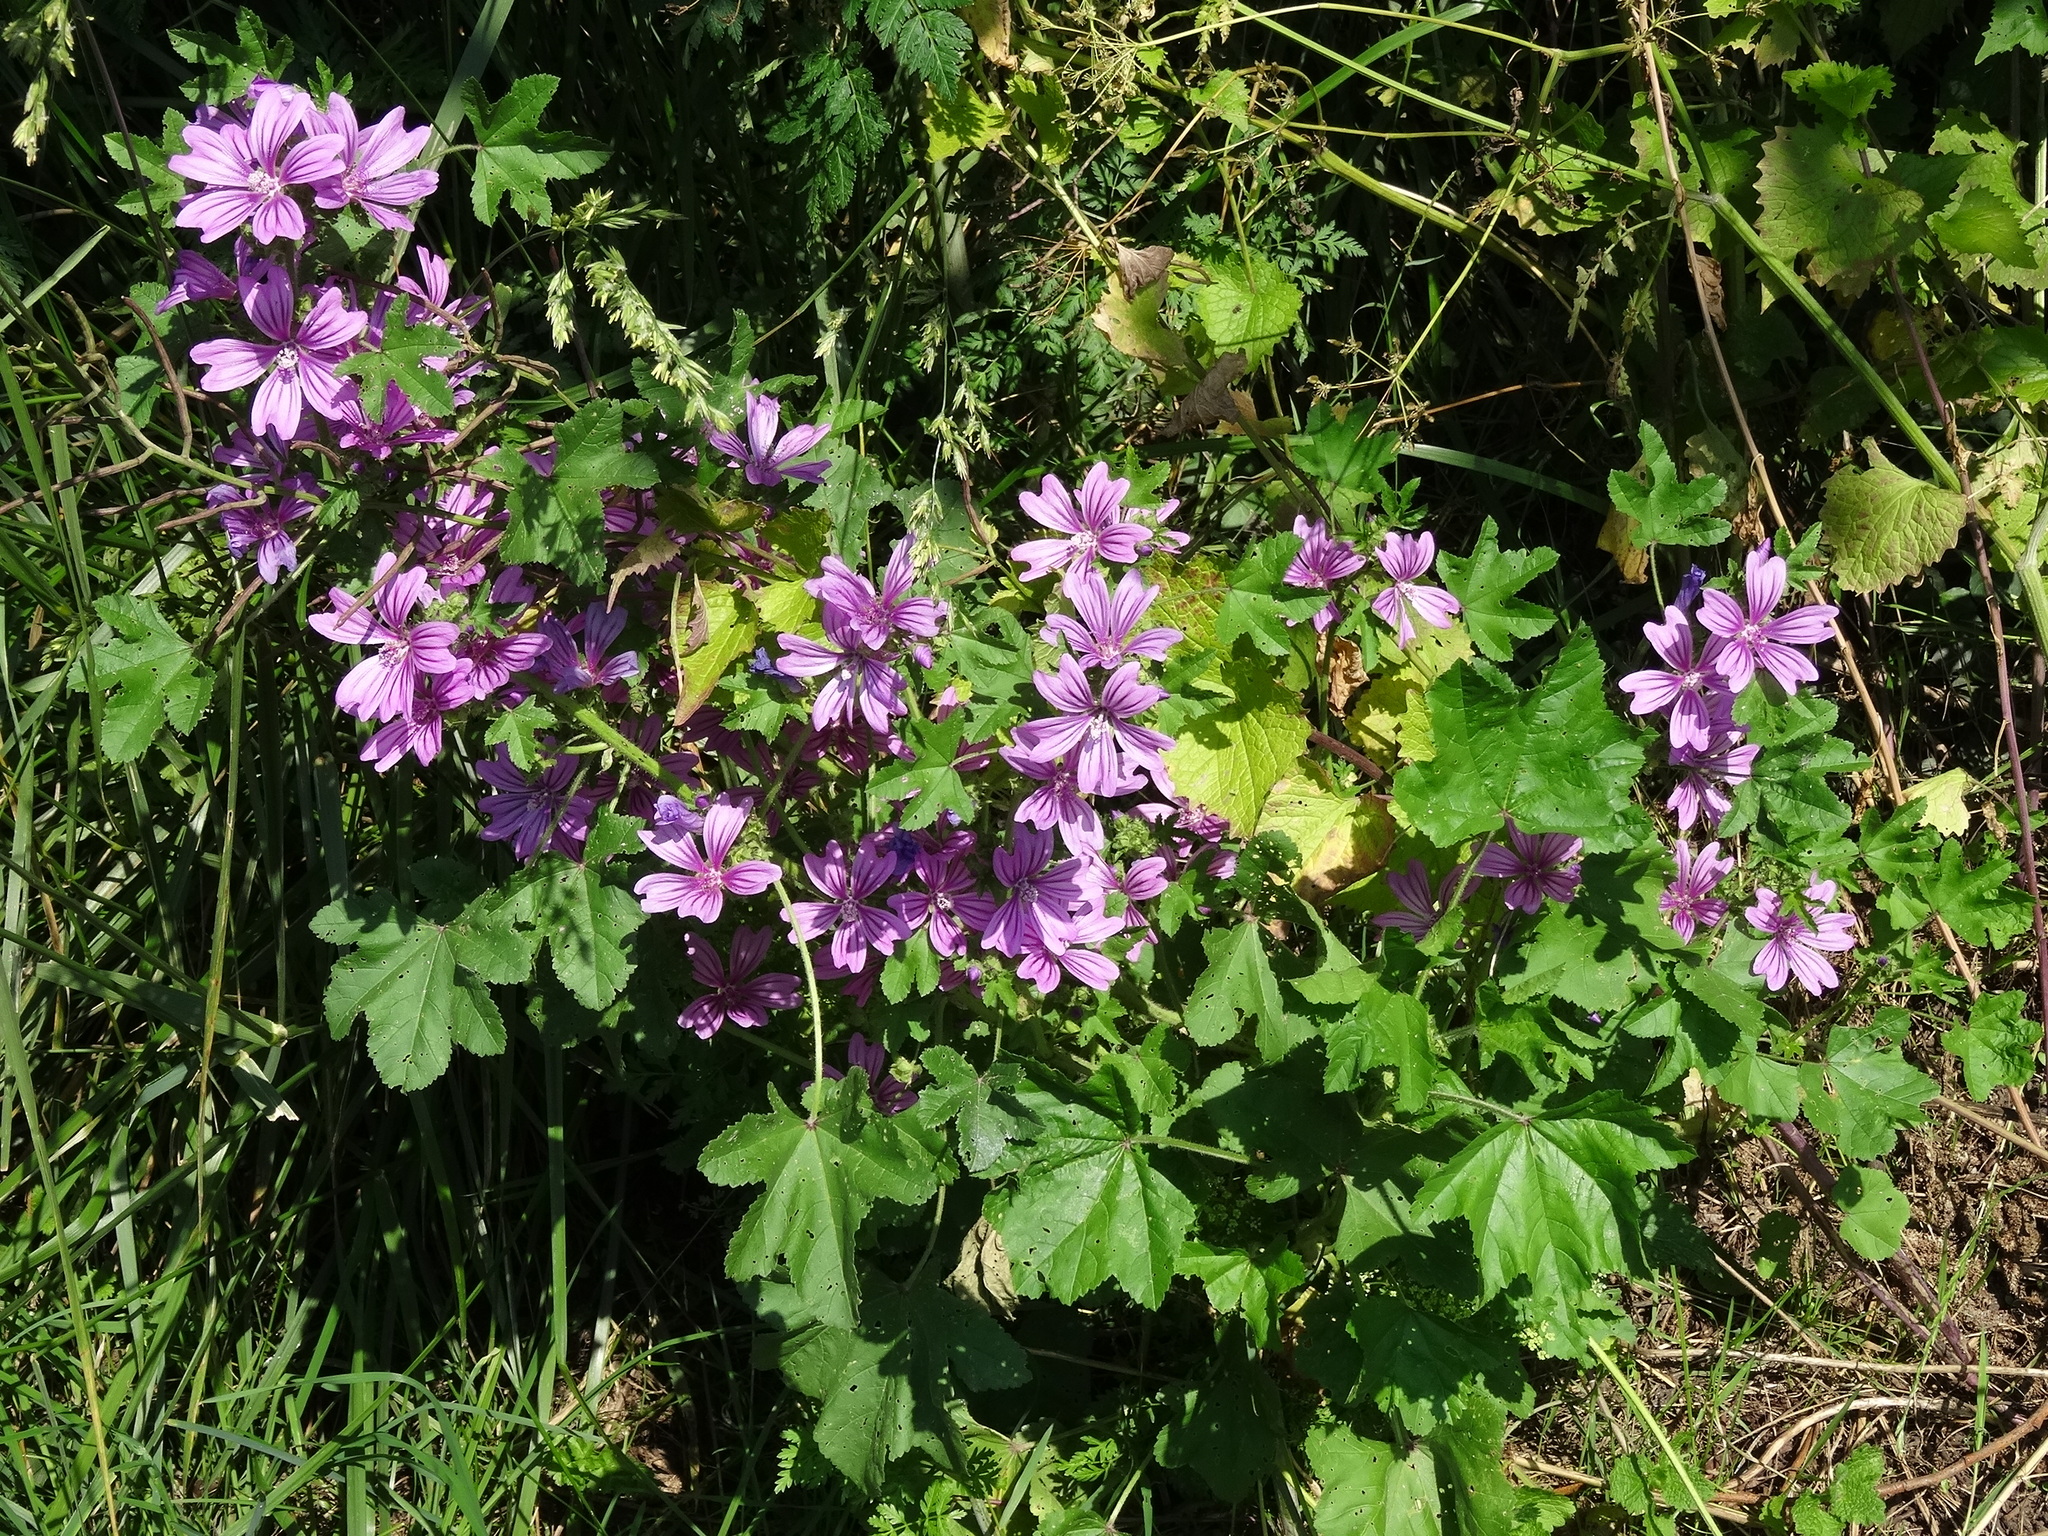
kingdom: Plantae
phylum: Tracheophyta
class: Magnoliopsida
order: Malvales
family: Malvaceae
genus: Malva
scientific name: Malva sylvestris
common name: Common mallow
